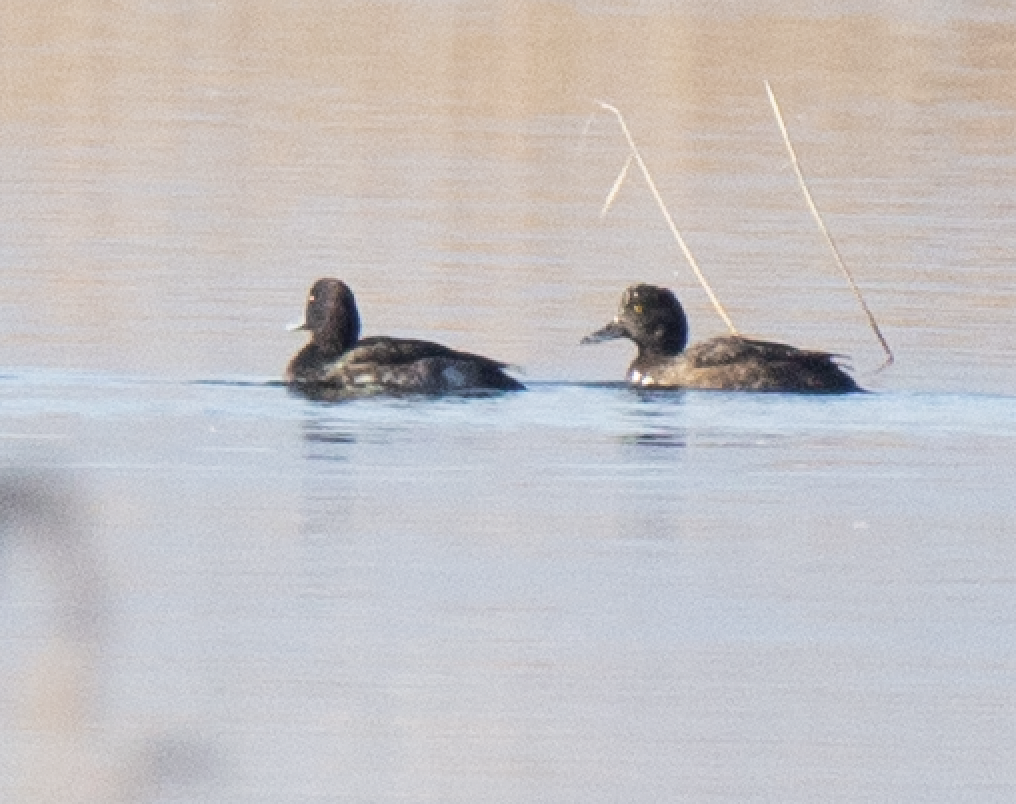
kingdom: Animalia
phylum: Chordata
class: Aves
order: Anseriformes
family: Anatidae
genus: Aythya
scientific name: Aythya fuligula
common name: Tufted duck
